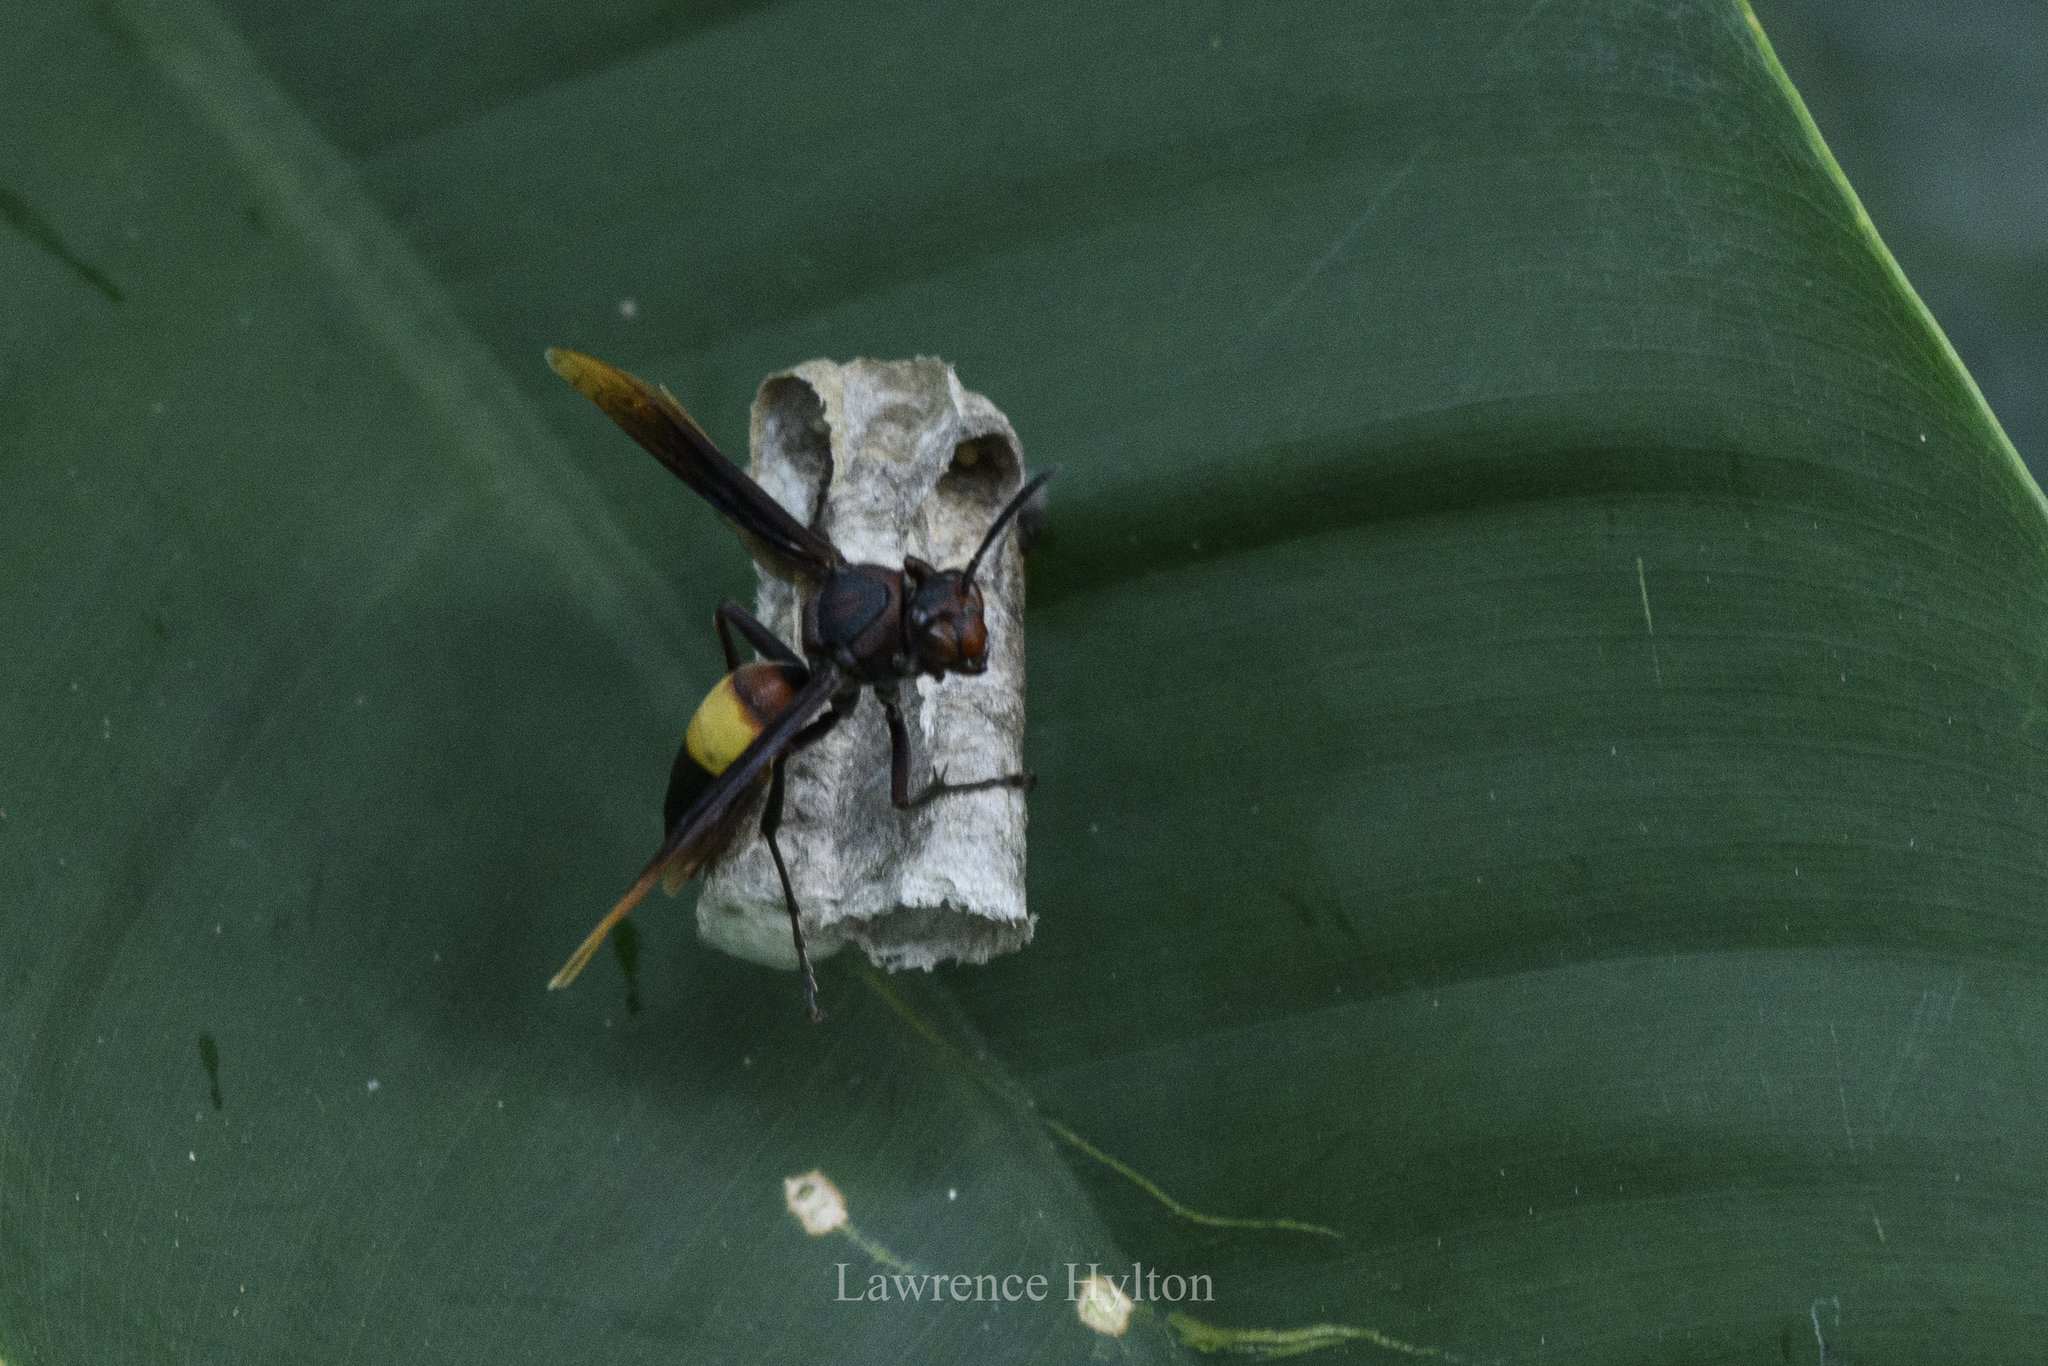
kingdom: Animalia
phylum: Arthropoda
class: Insecta
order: Hymenoptera
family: Eumenidae
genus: Polistes
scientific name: Polistes sagittarius
